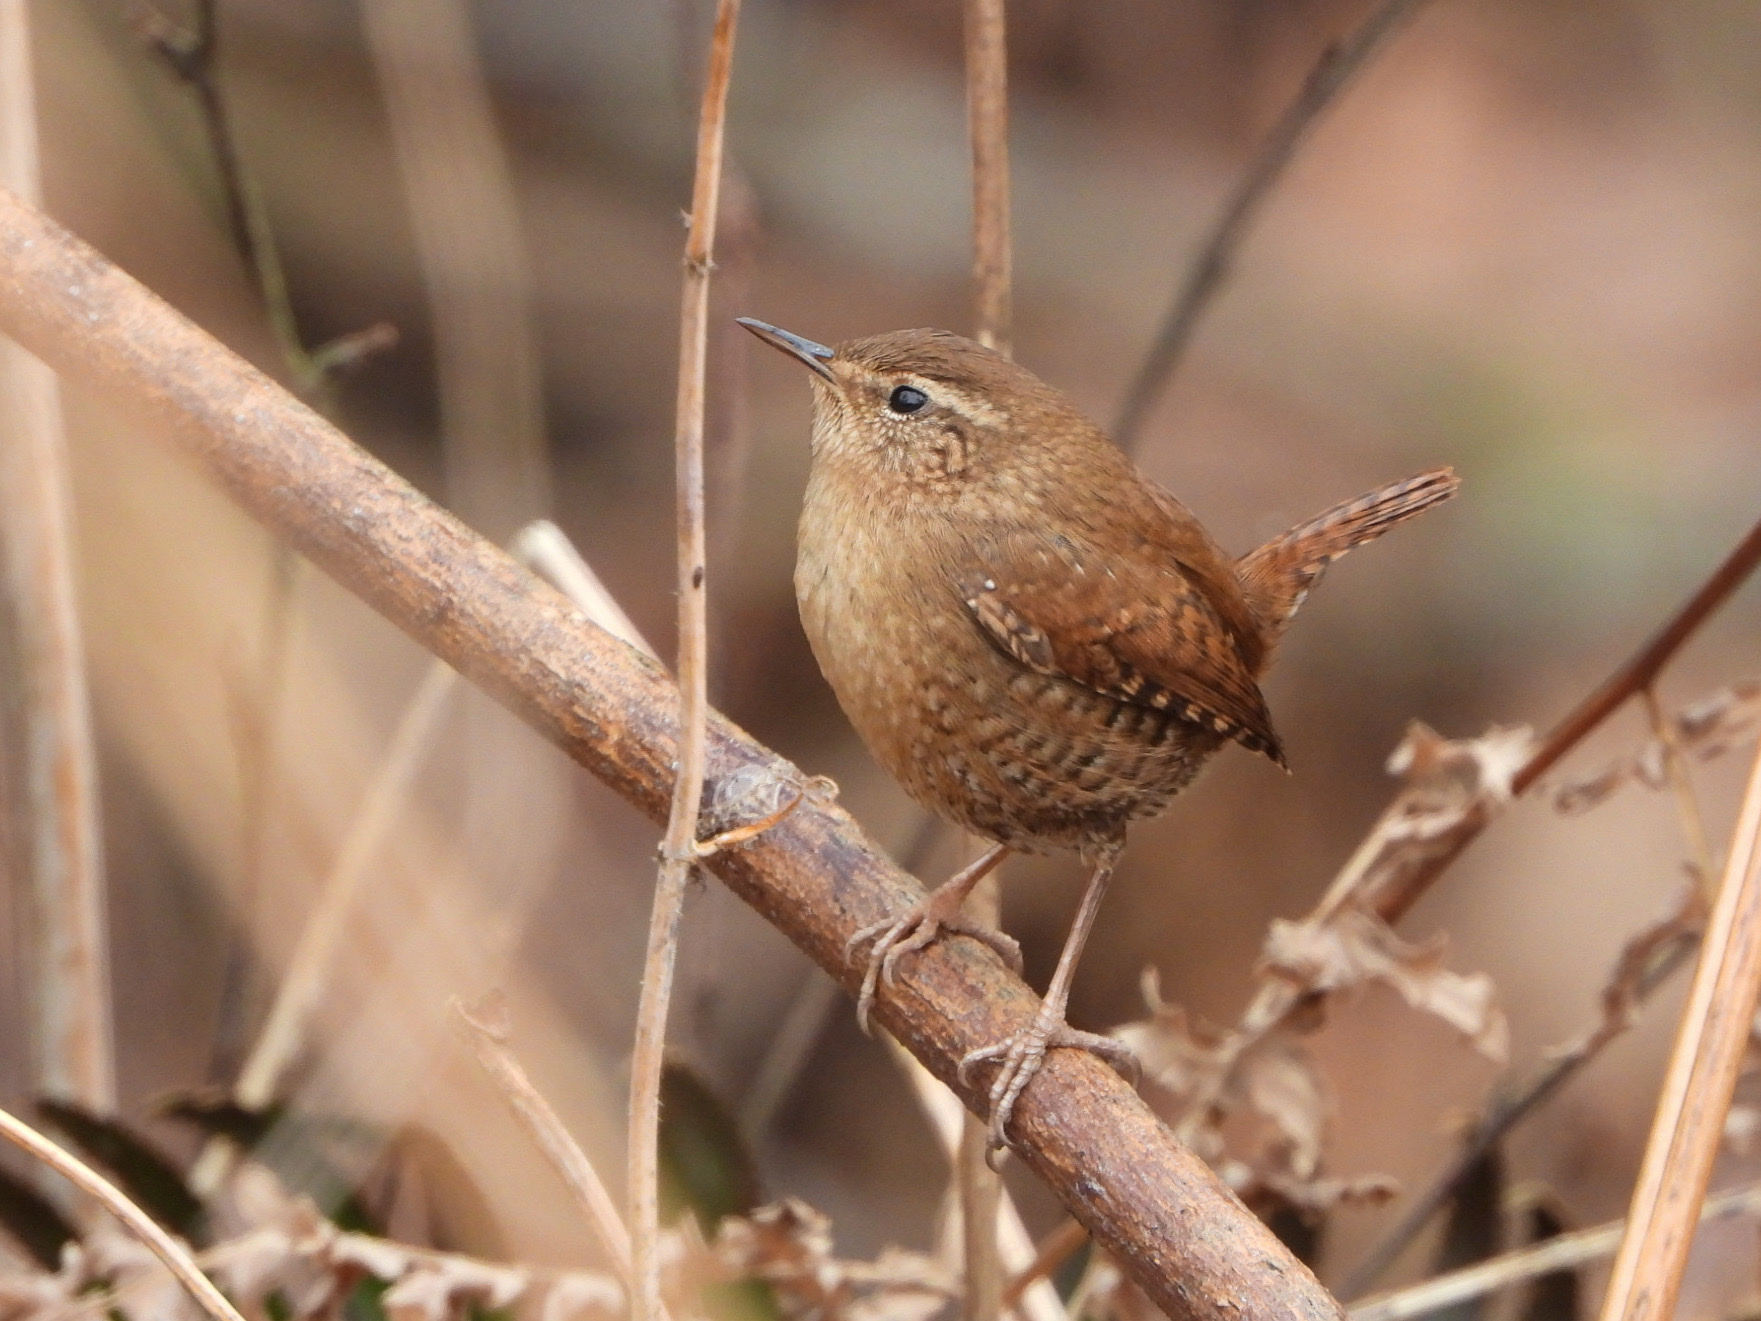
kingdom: Animalia
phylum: Chordata
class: Aves
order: Passeriformes
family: Troglodytidae
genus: Troglodytes
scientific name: Troglodytes pacificus
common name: Pacific wren
